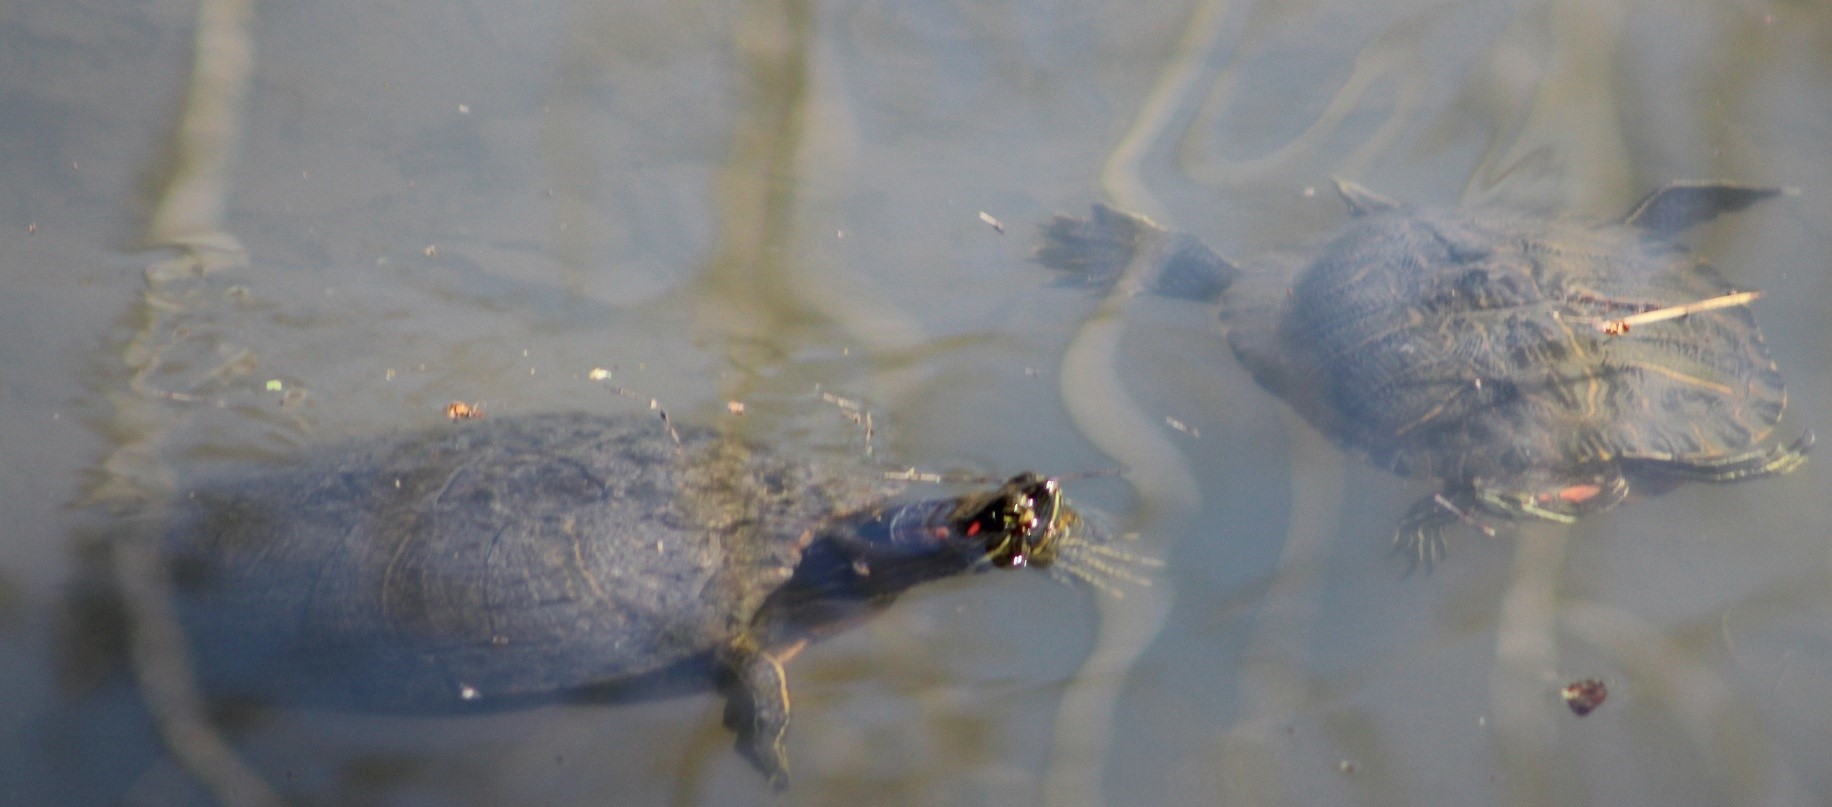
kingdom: Animalia
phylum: Chordata
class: Testudines
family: Emydidae
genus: Trachemys
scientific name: Trachemys scripta
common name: Slider
